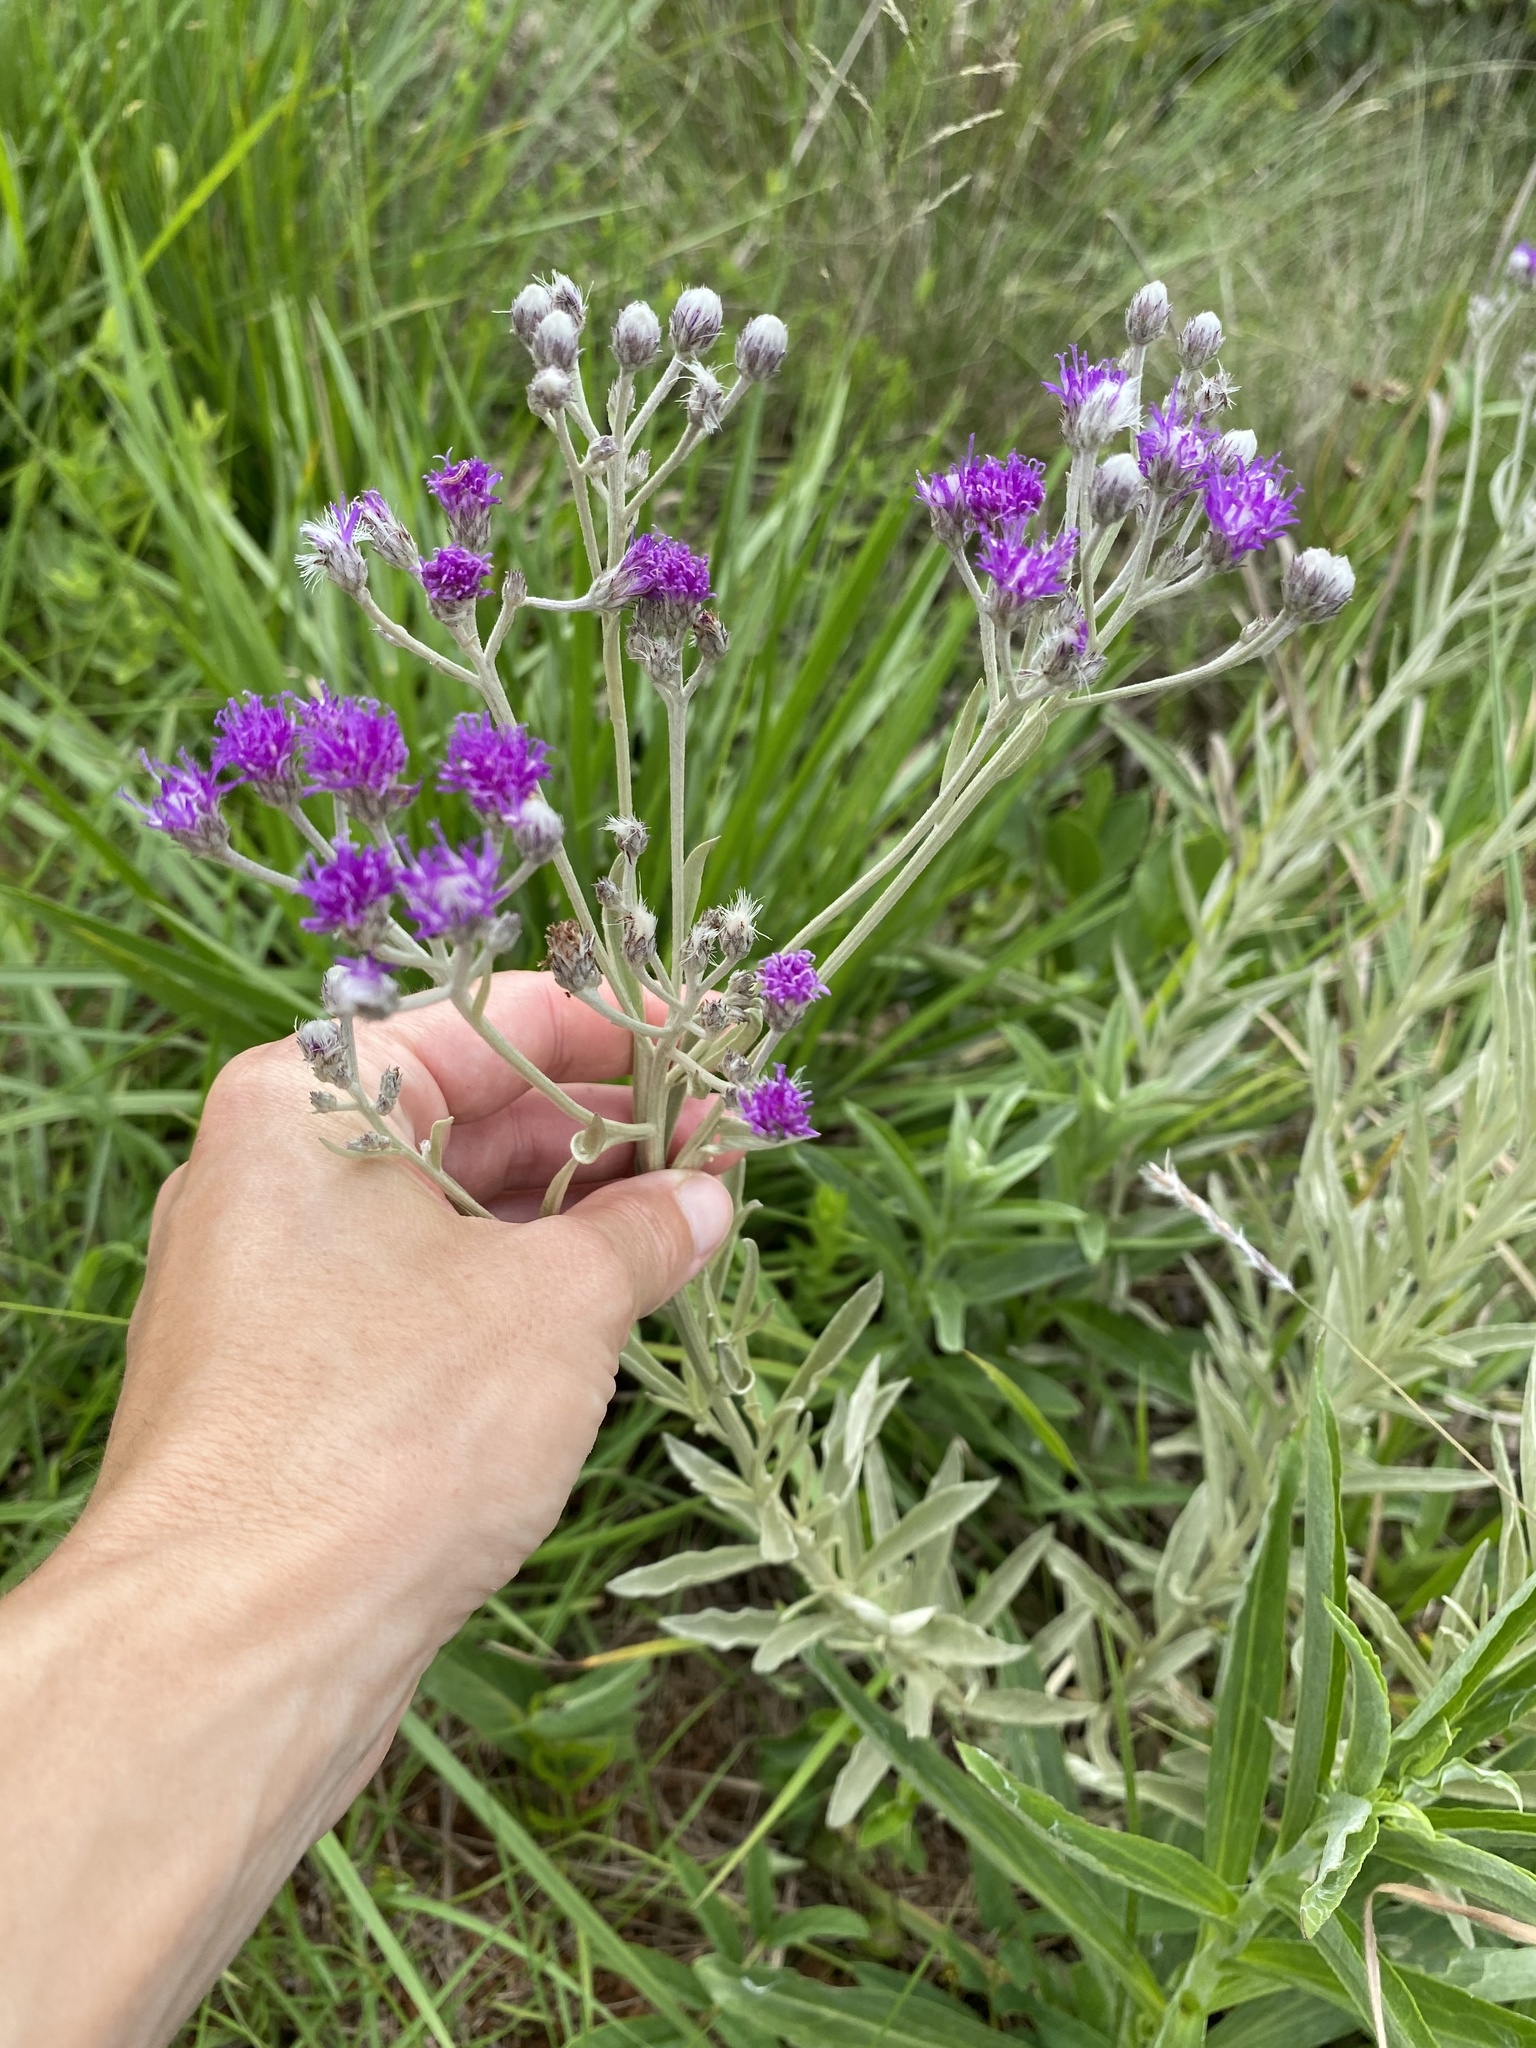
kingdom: Plantae
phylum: Tracheophyta
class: Magnoliopsida
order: Asterales
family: Asteraceae
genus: Hilliardiella
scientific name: Hilliardiella aristata
